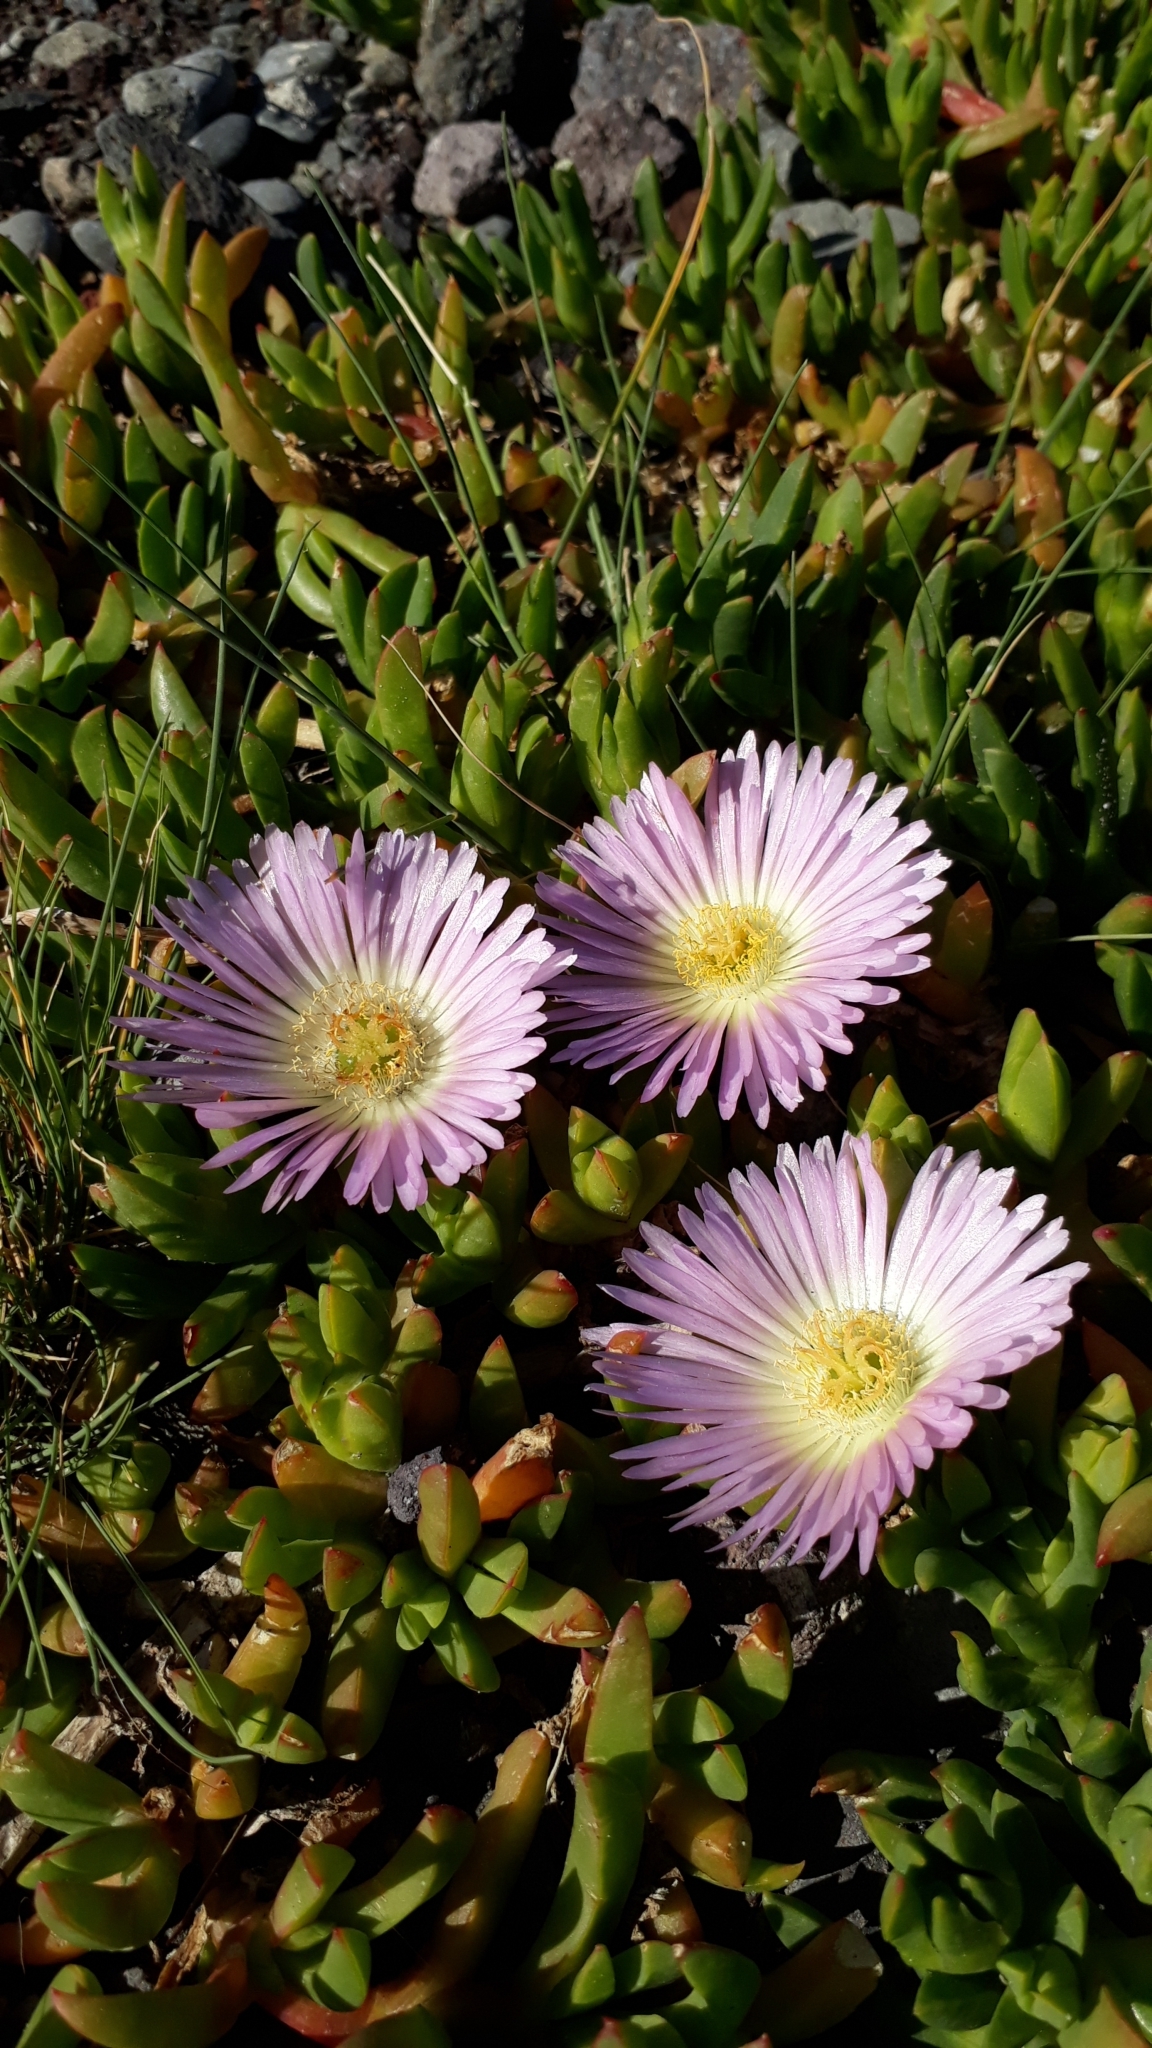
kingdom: Plantae
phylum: Tracheophyta
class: Magnoliopsida
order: Caryophyllales
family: Aizoaceae
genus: Disphyma
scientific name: Disphyma australe
